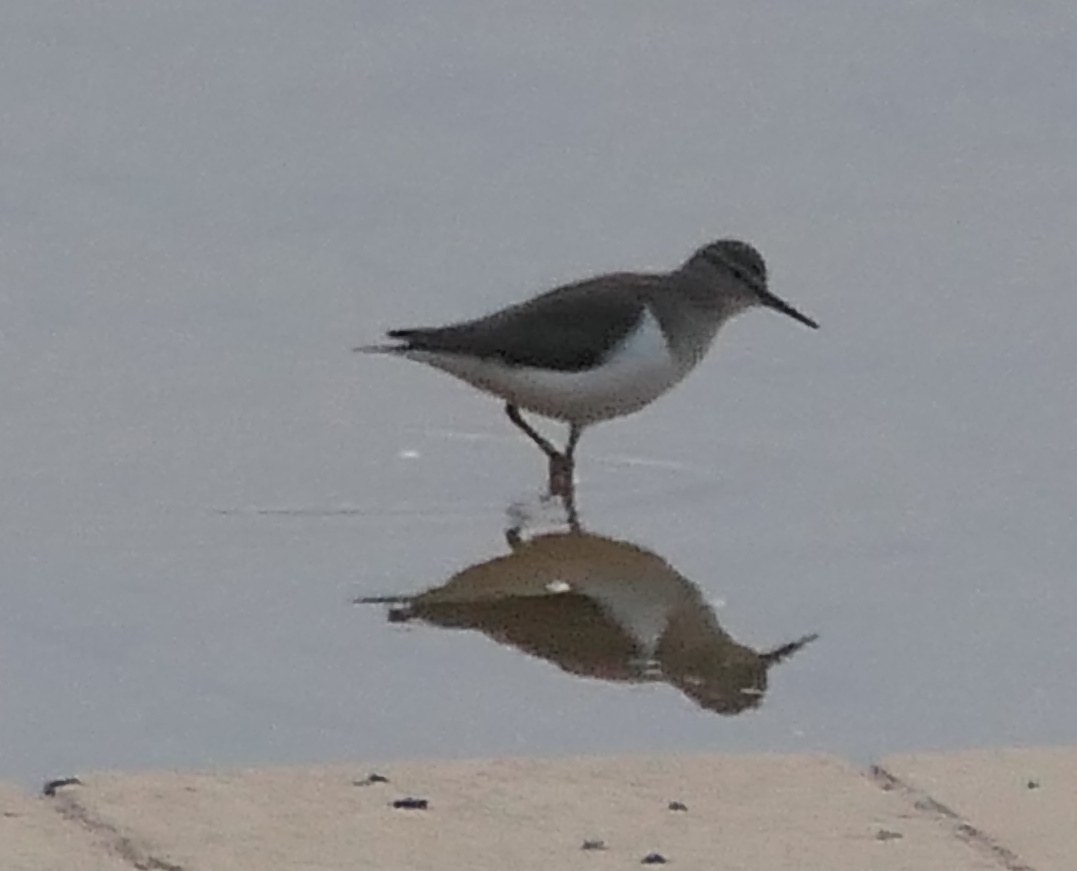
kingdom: Animalia
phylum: Chordata
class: Aves
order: Charadriiformes
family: Scolopacidae
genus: Actitis
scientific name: Actitis hypoleucos
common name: Common sandpiper
